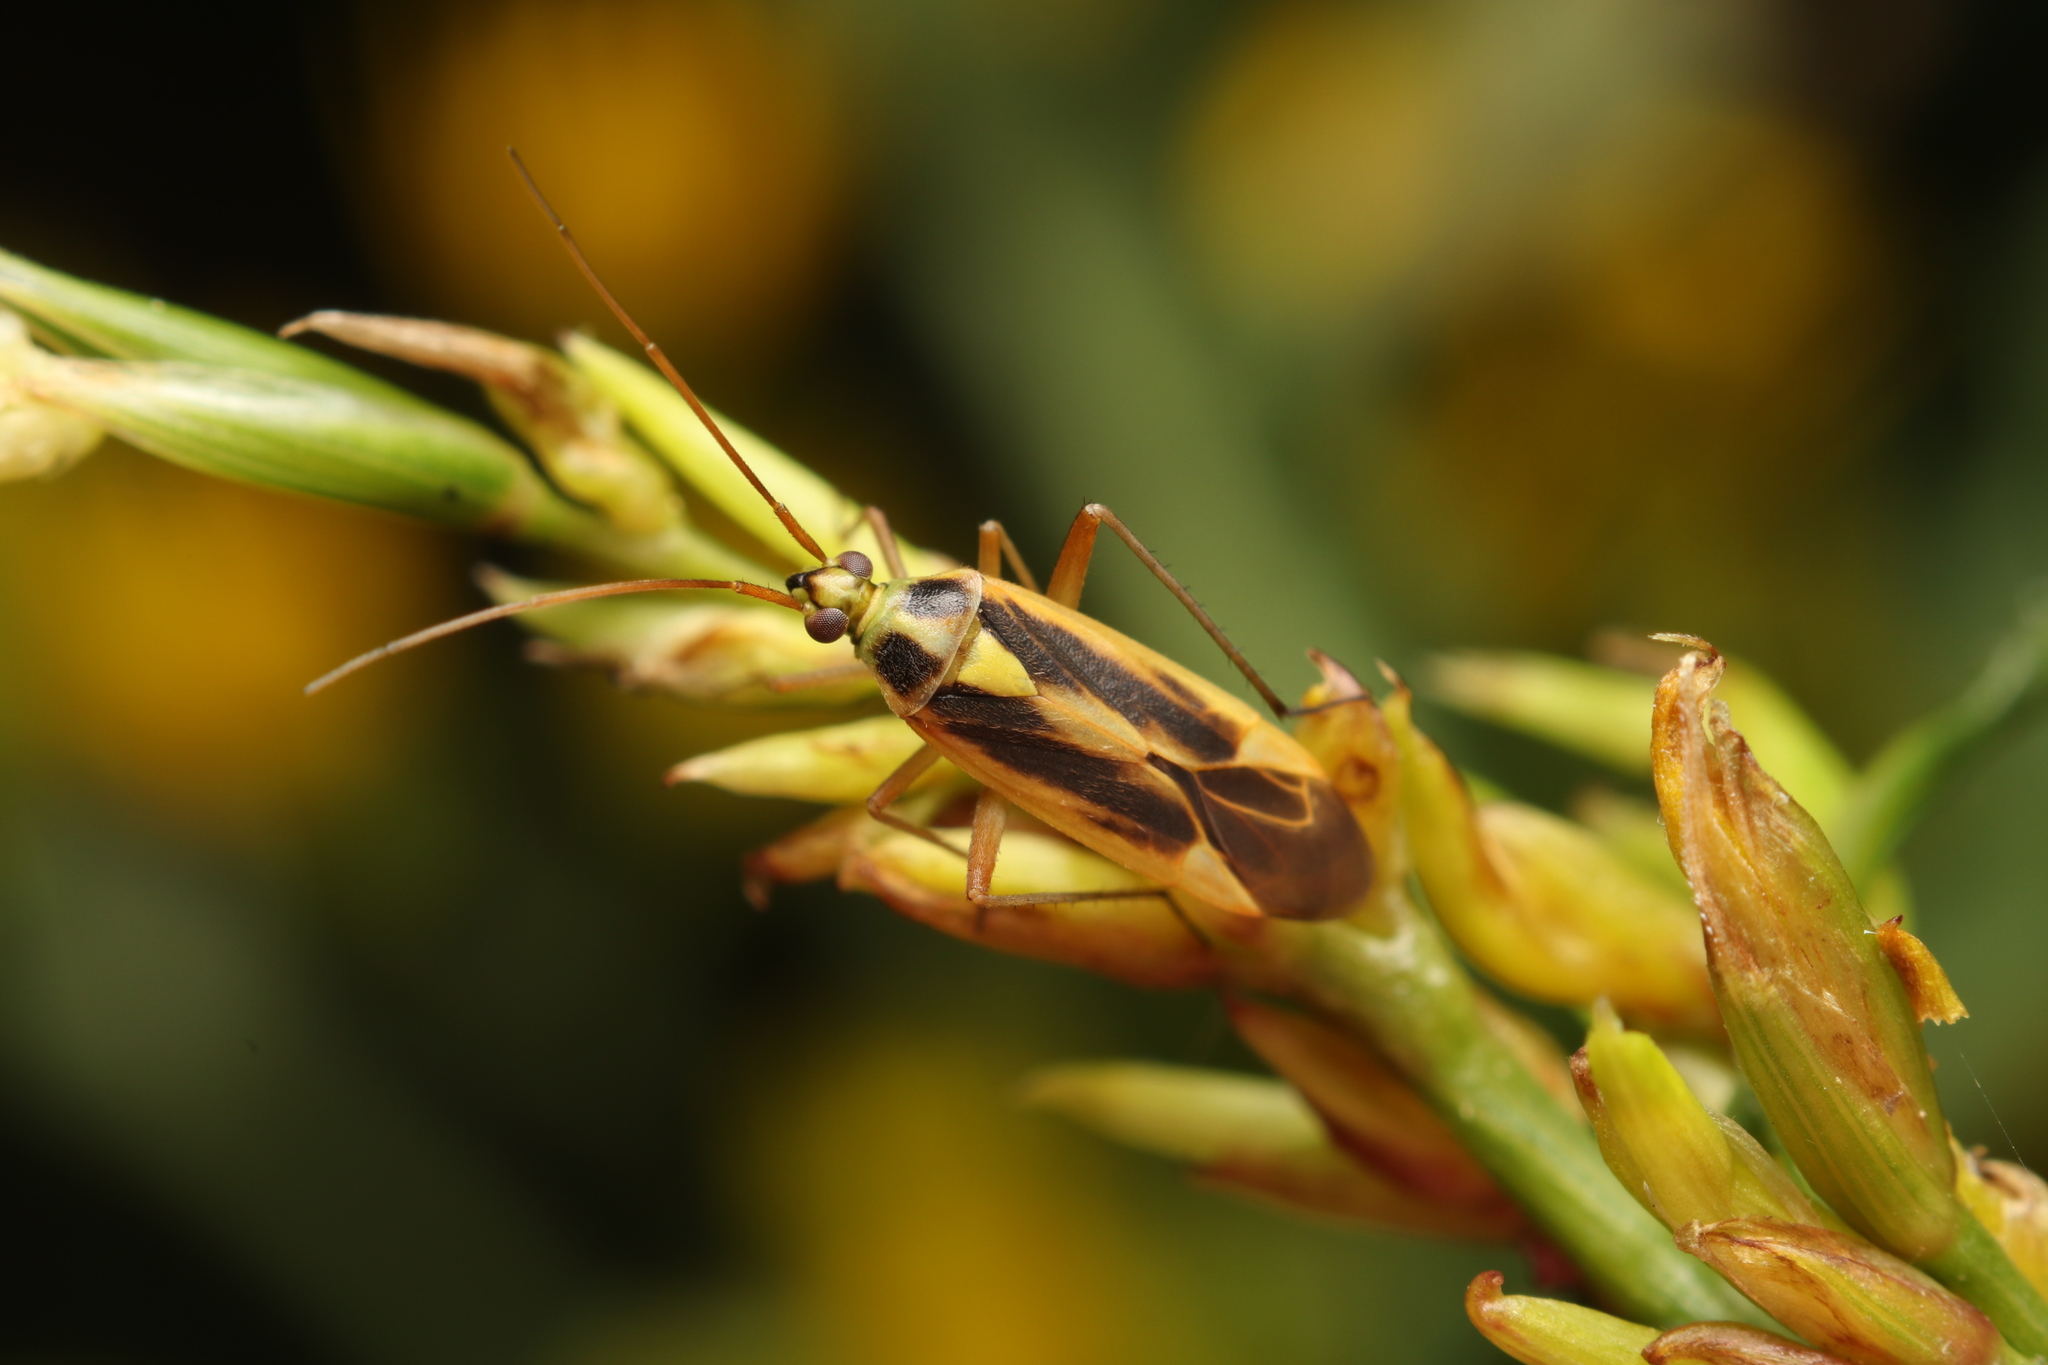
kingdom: Animalia
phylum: Arthropoda
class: Insecta
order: Hemiptera
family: Miridae
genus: Stenotus
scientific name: Stenotus binotatus
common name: Plant bug
